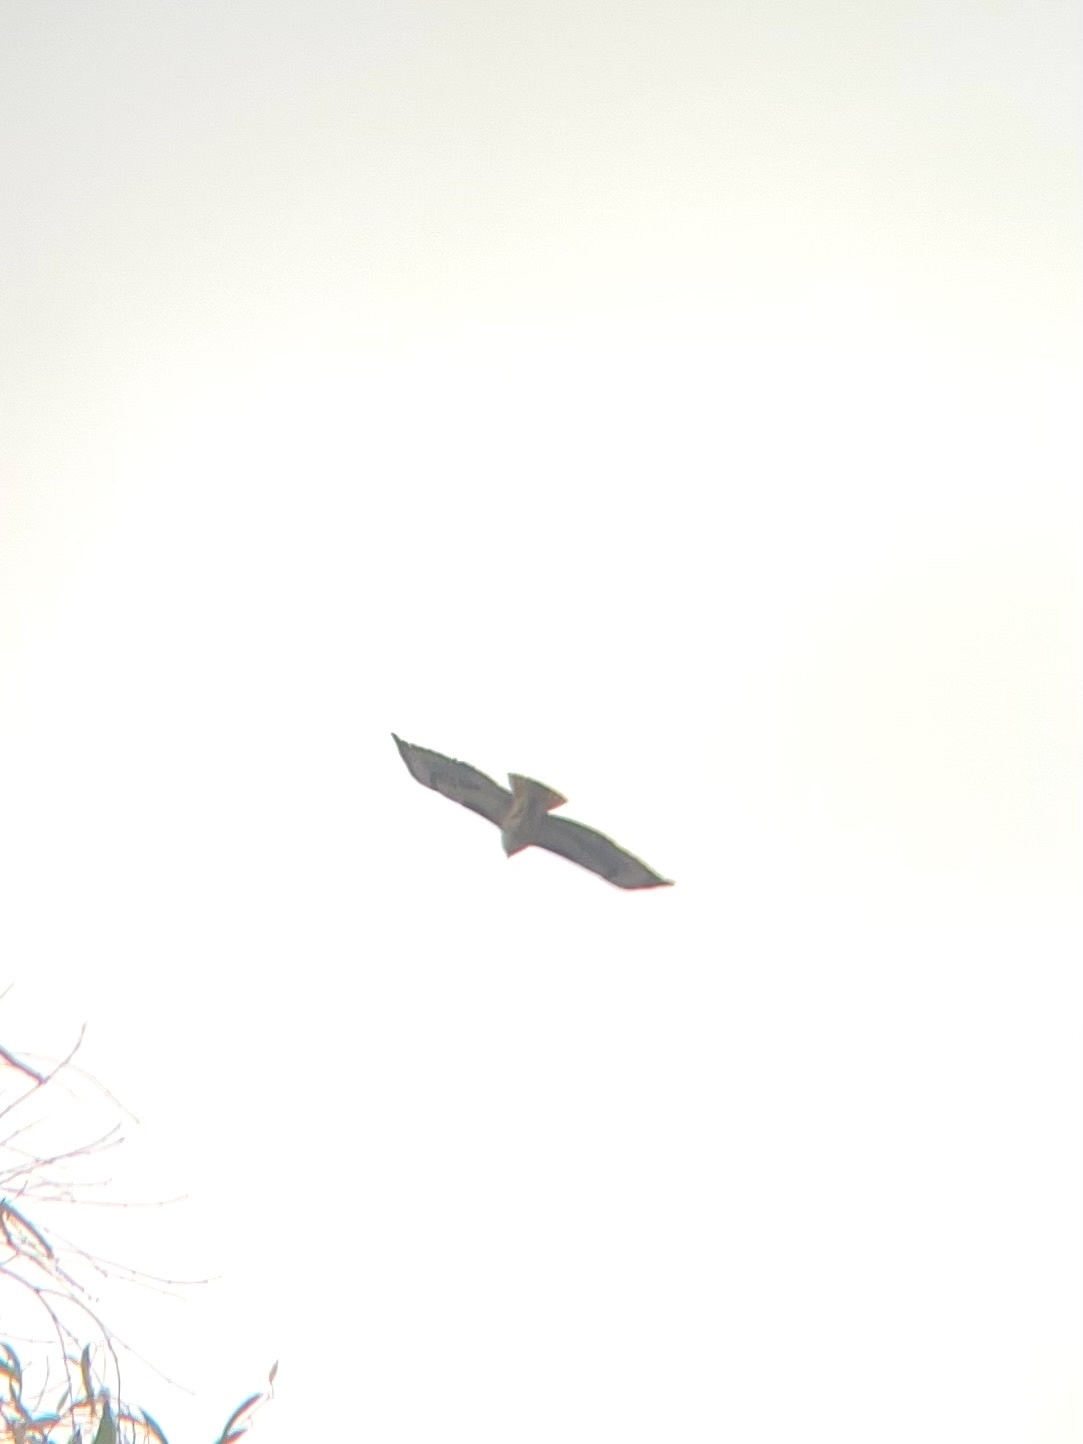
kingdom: Animalia
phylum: Chordata
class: Aves
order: Accipitriformes
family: Accipitridae
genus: Buteo
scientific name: Buteo jamaicensis
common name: Red-tailed hawk
